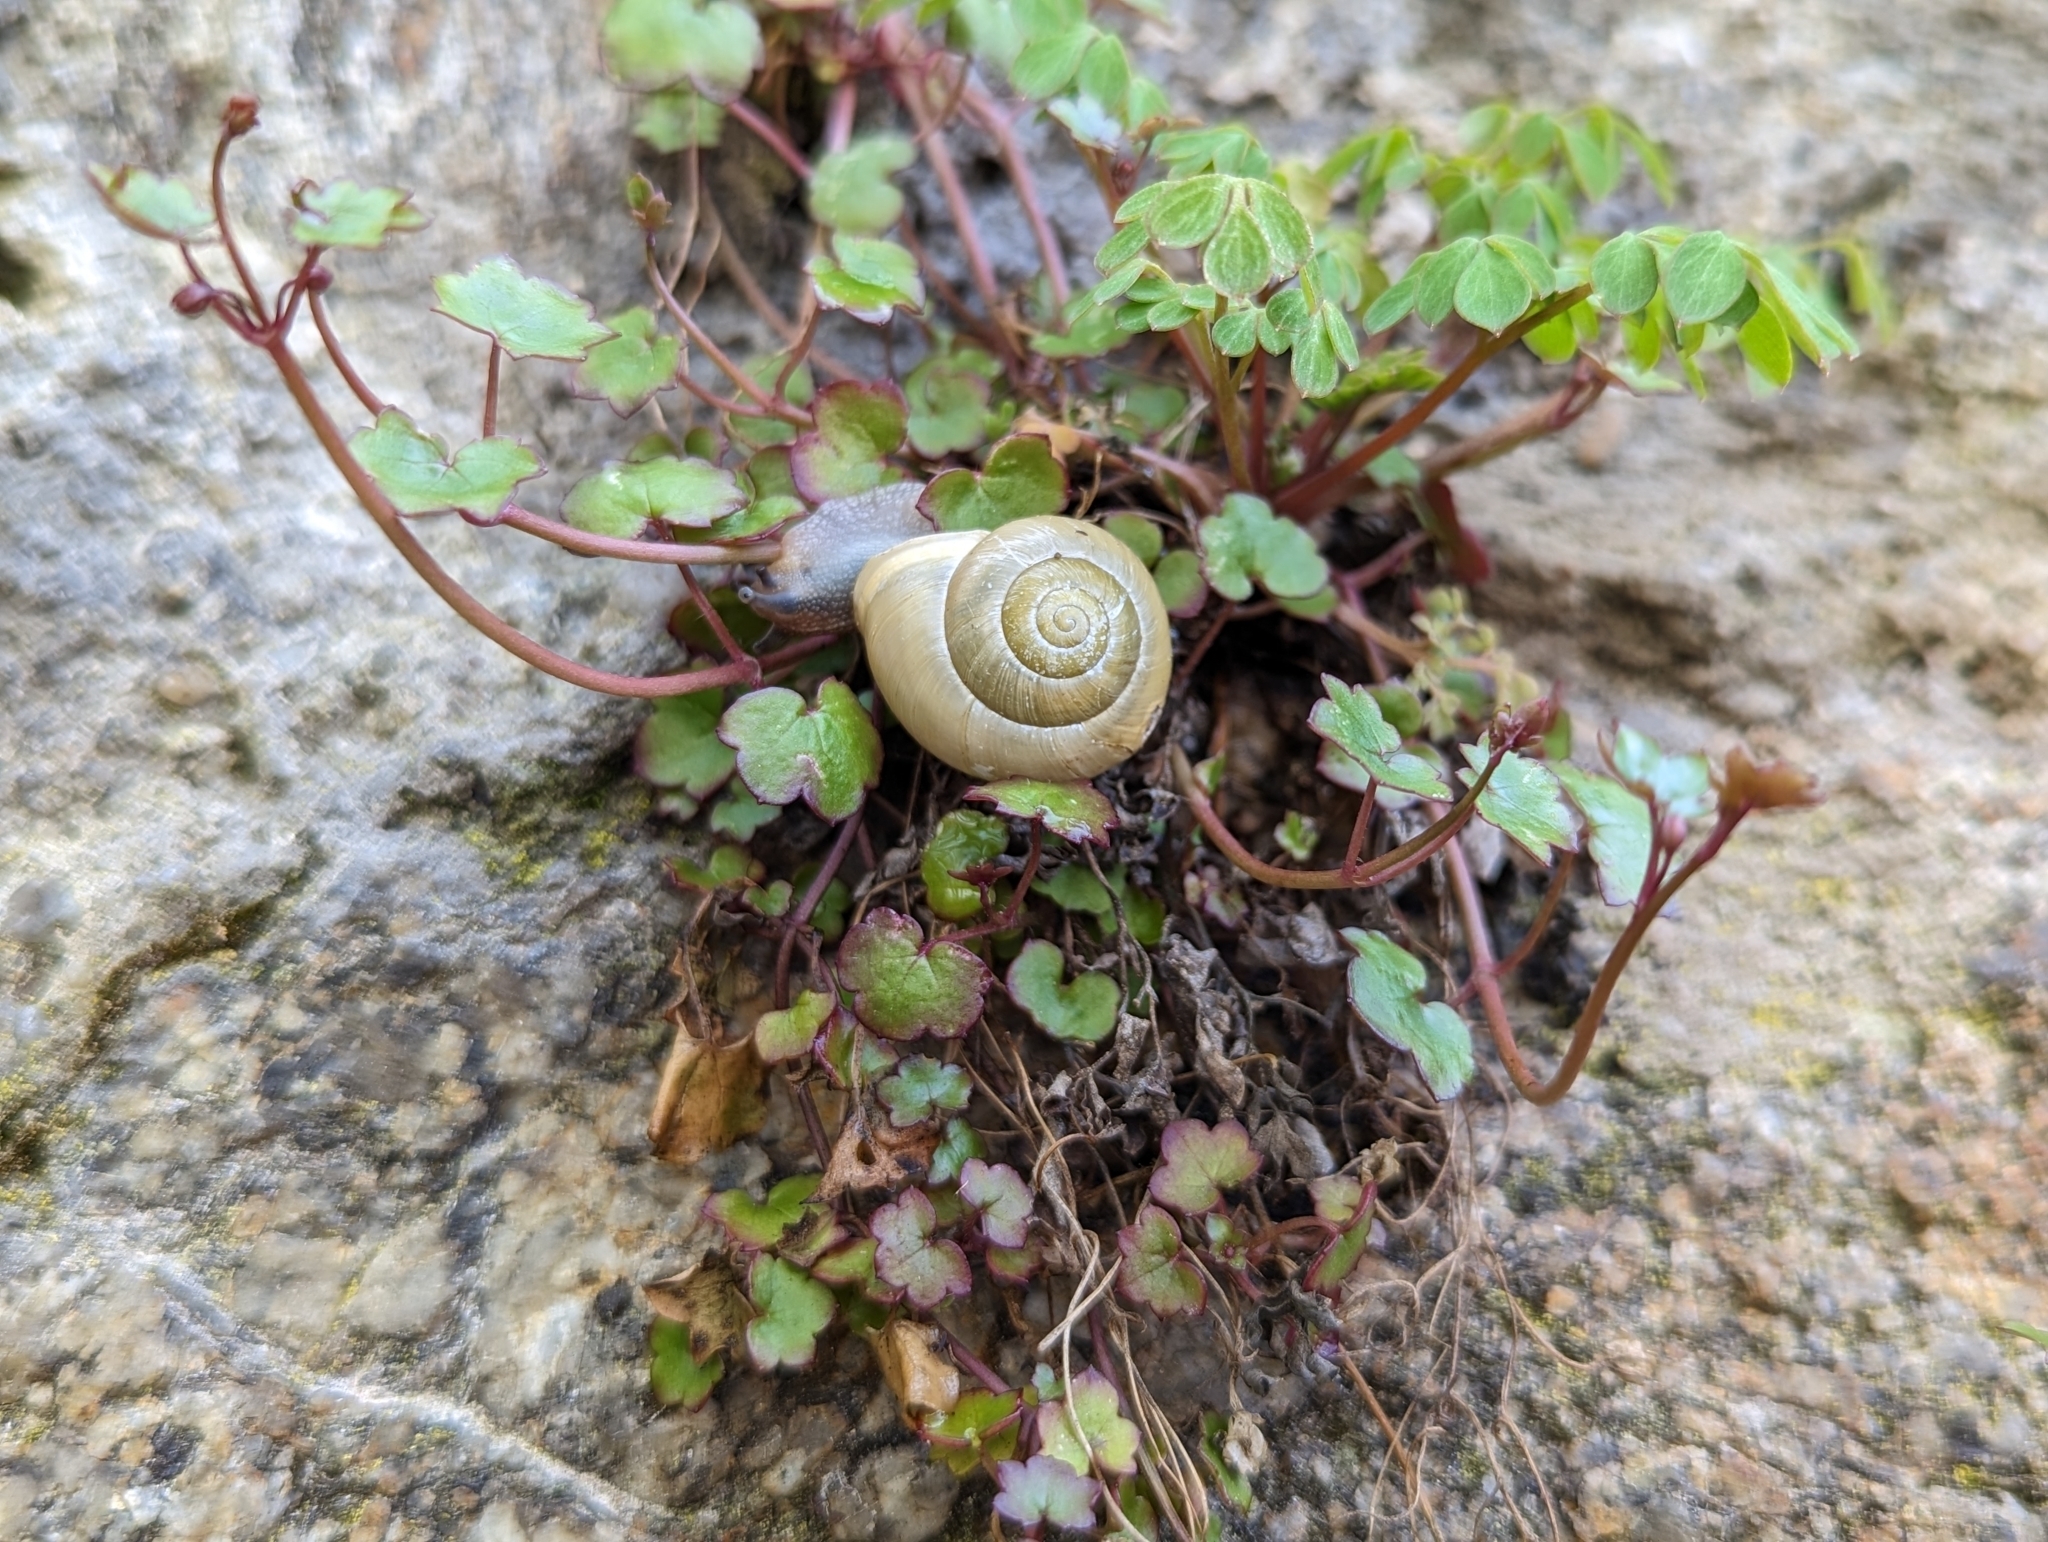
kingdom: Animalia
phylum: Mollusca
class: Gastropoda
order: Stylommatophora
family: Helicidae
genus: Cepaea
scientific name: Cepaea hortensis
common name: White-lip gardensnail
